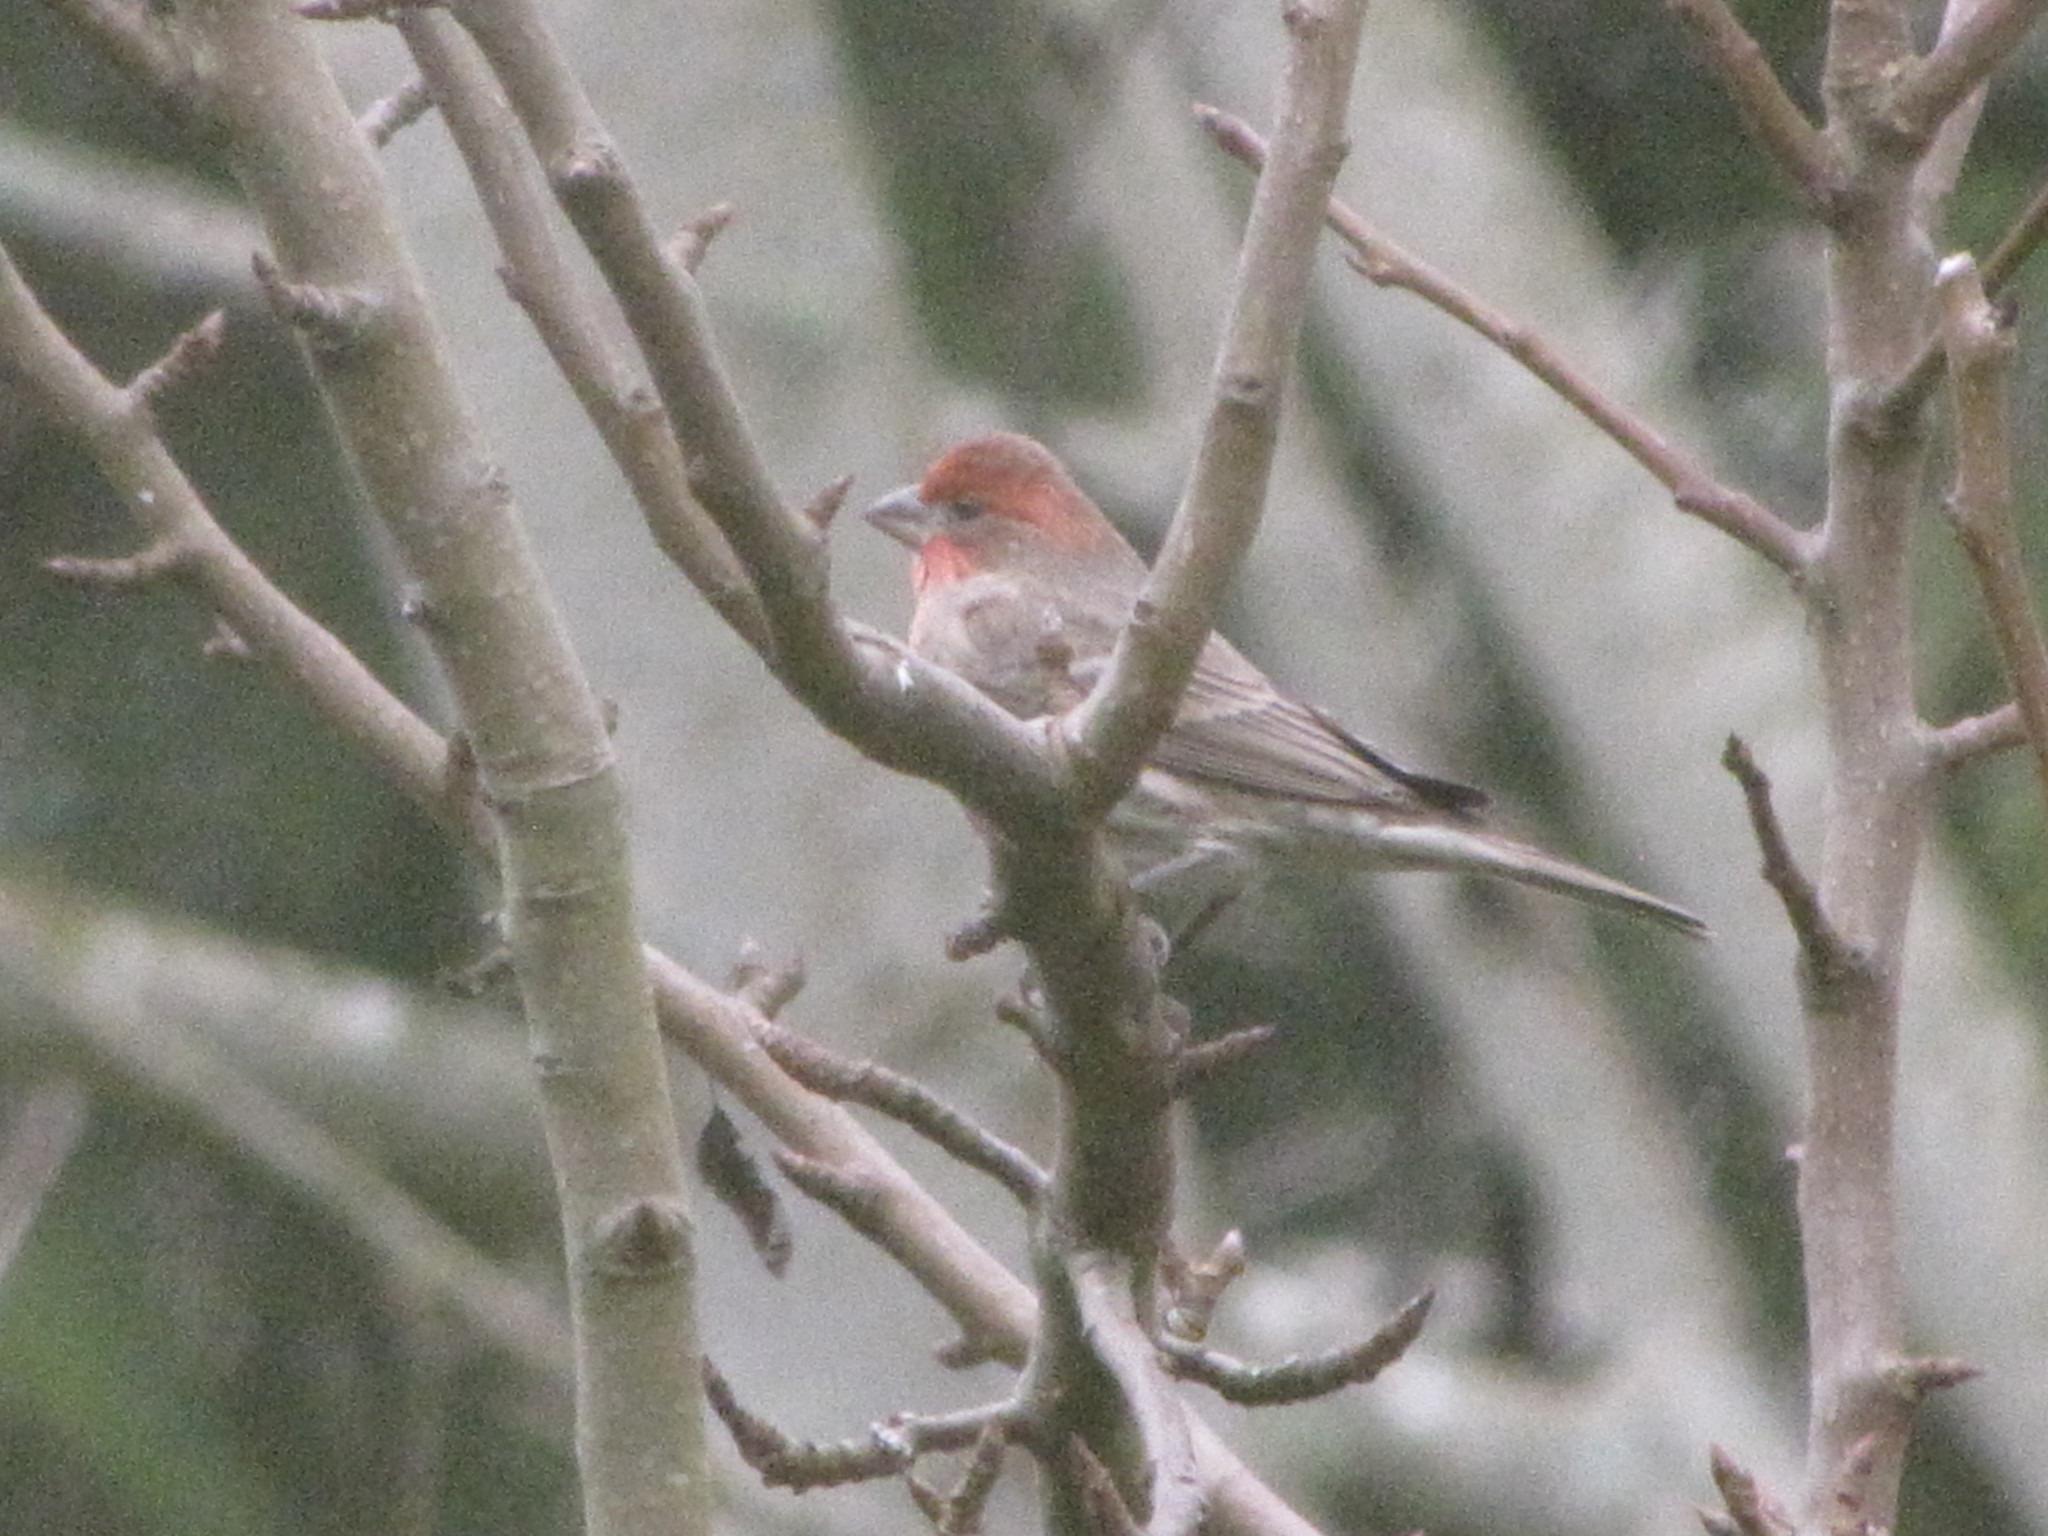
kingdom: Animalia
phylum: Chordata
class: Aves
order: Passeriformes
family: Fringillidae
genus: Haemorhous
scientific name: Haemorhous mexicanus
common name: House finch
